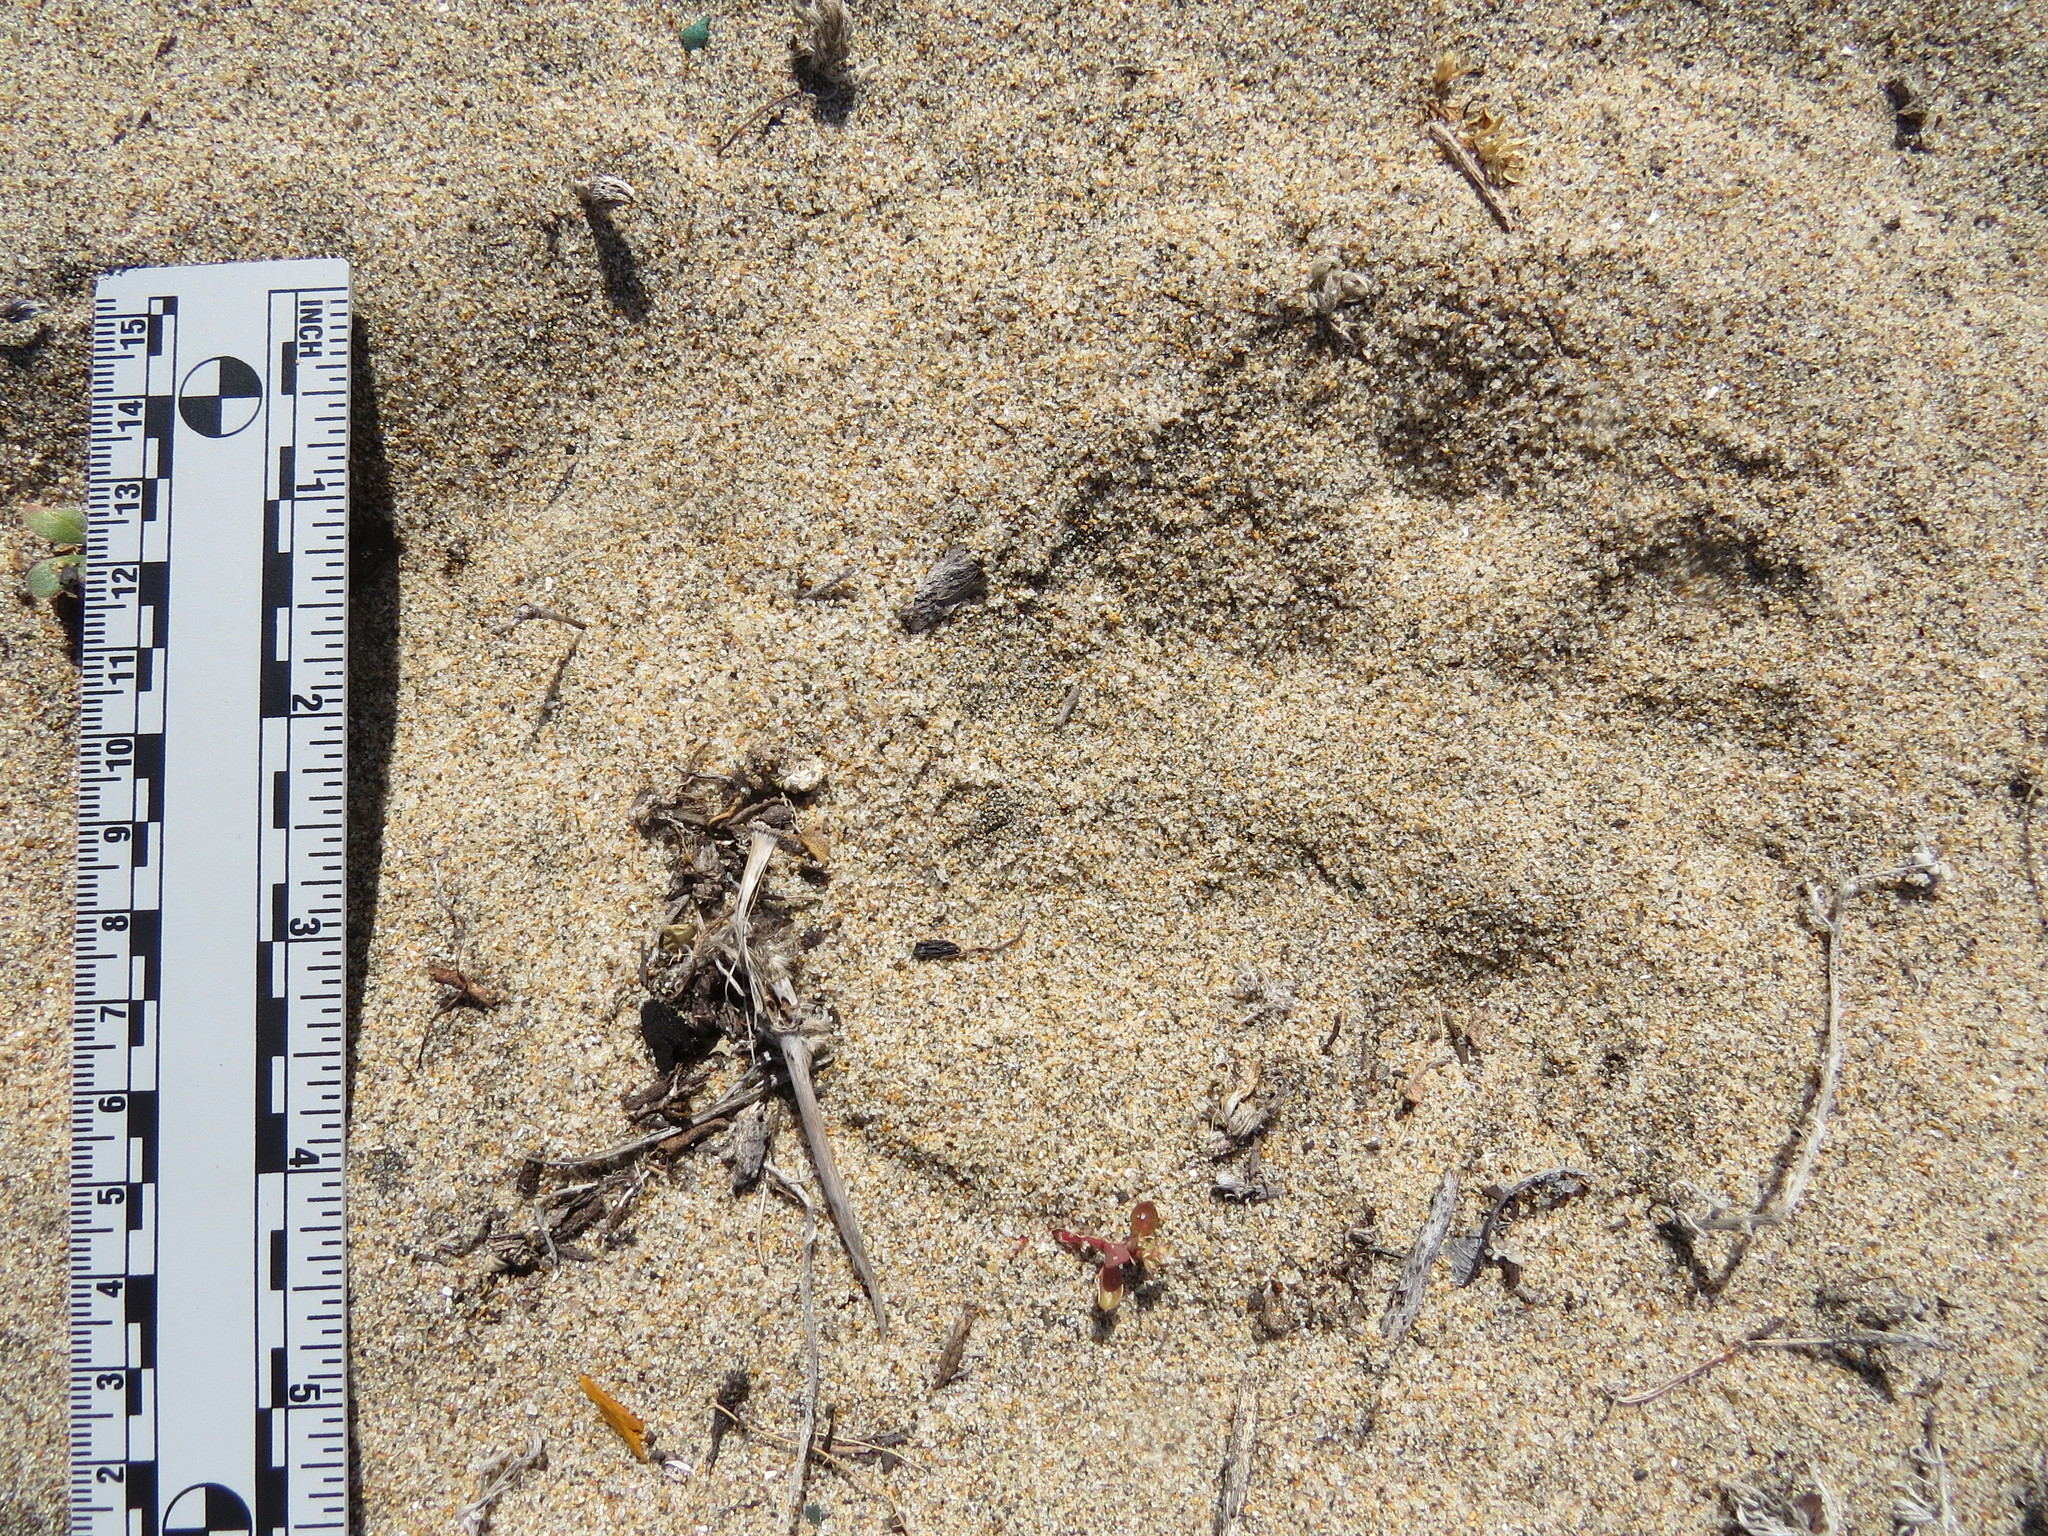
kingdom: Animalia
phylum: Chordata
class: Mammalia
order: Carnivora
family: Felidae
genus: Puma
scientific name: Puma concolor
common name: Puma
